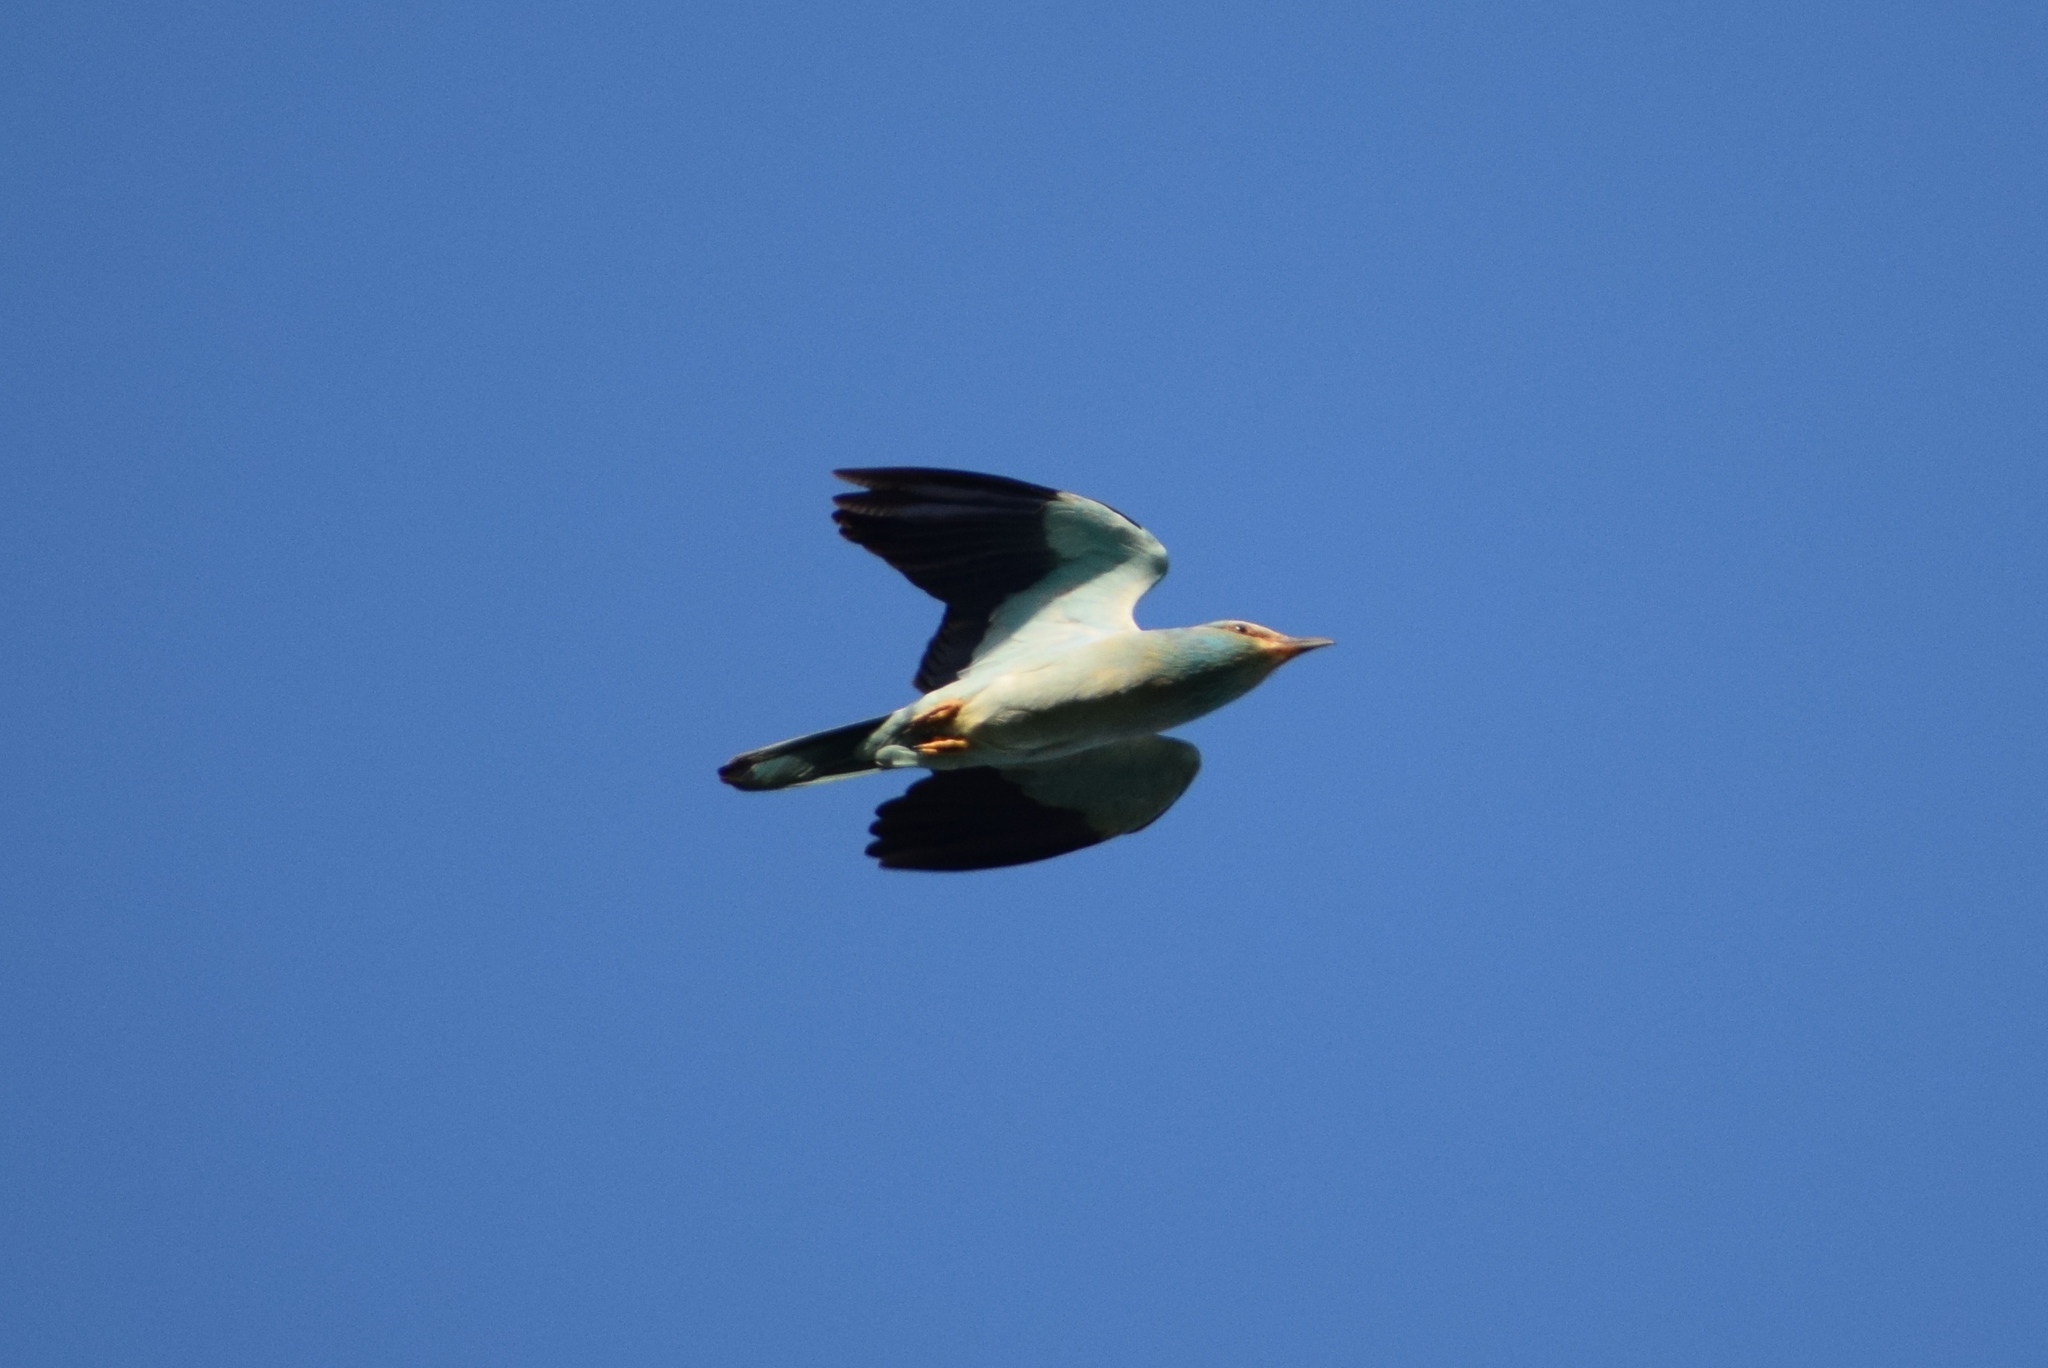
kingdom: Animalia
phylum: Chordata
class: Aves
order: Coraciiformes
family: Coraciidae
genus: Coracias
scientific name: Coracias garrulus
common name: European roller
